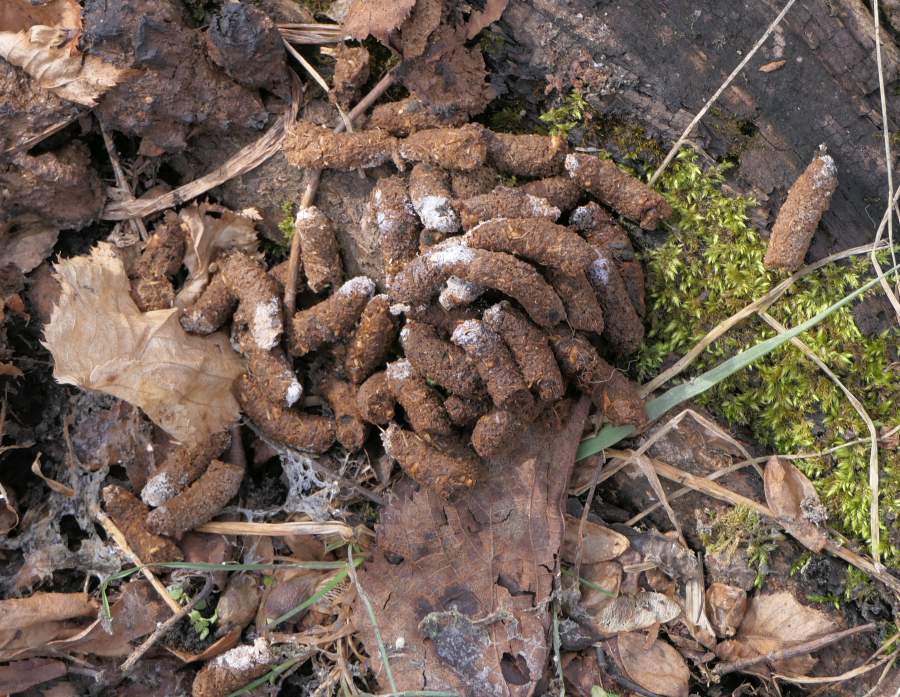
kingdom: Animalia
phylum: Chordata
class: Aves
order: Galliformes
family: Phasianidae
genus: Bonasa
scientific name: Bonasa umbellus
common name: Ruffed grouse
